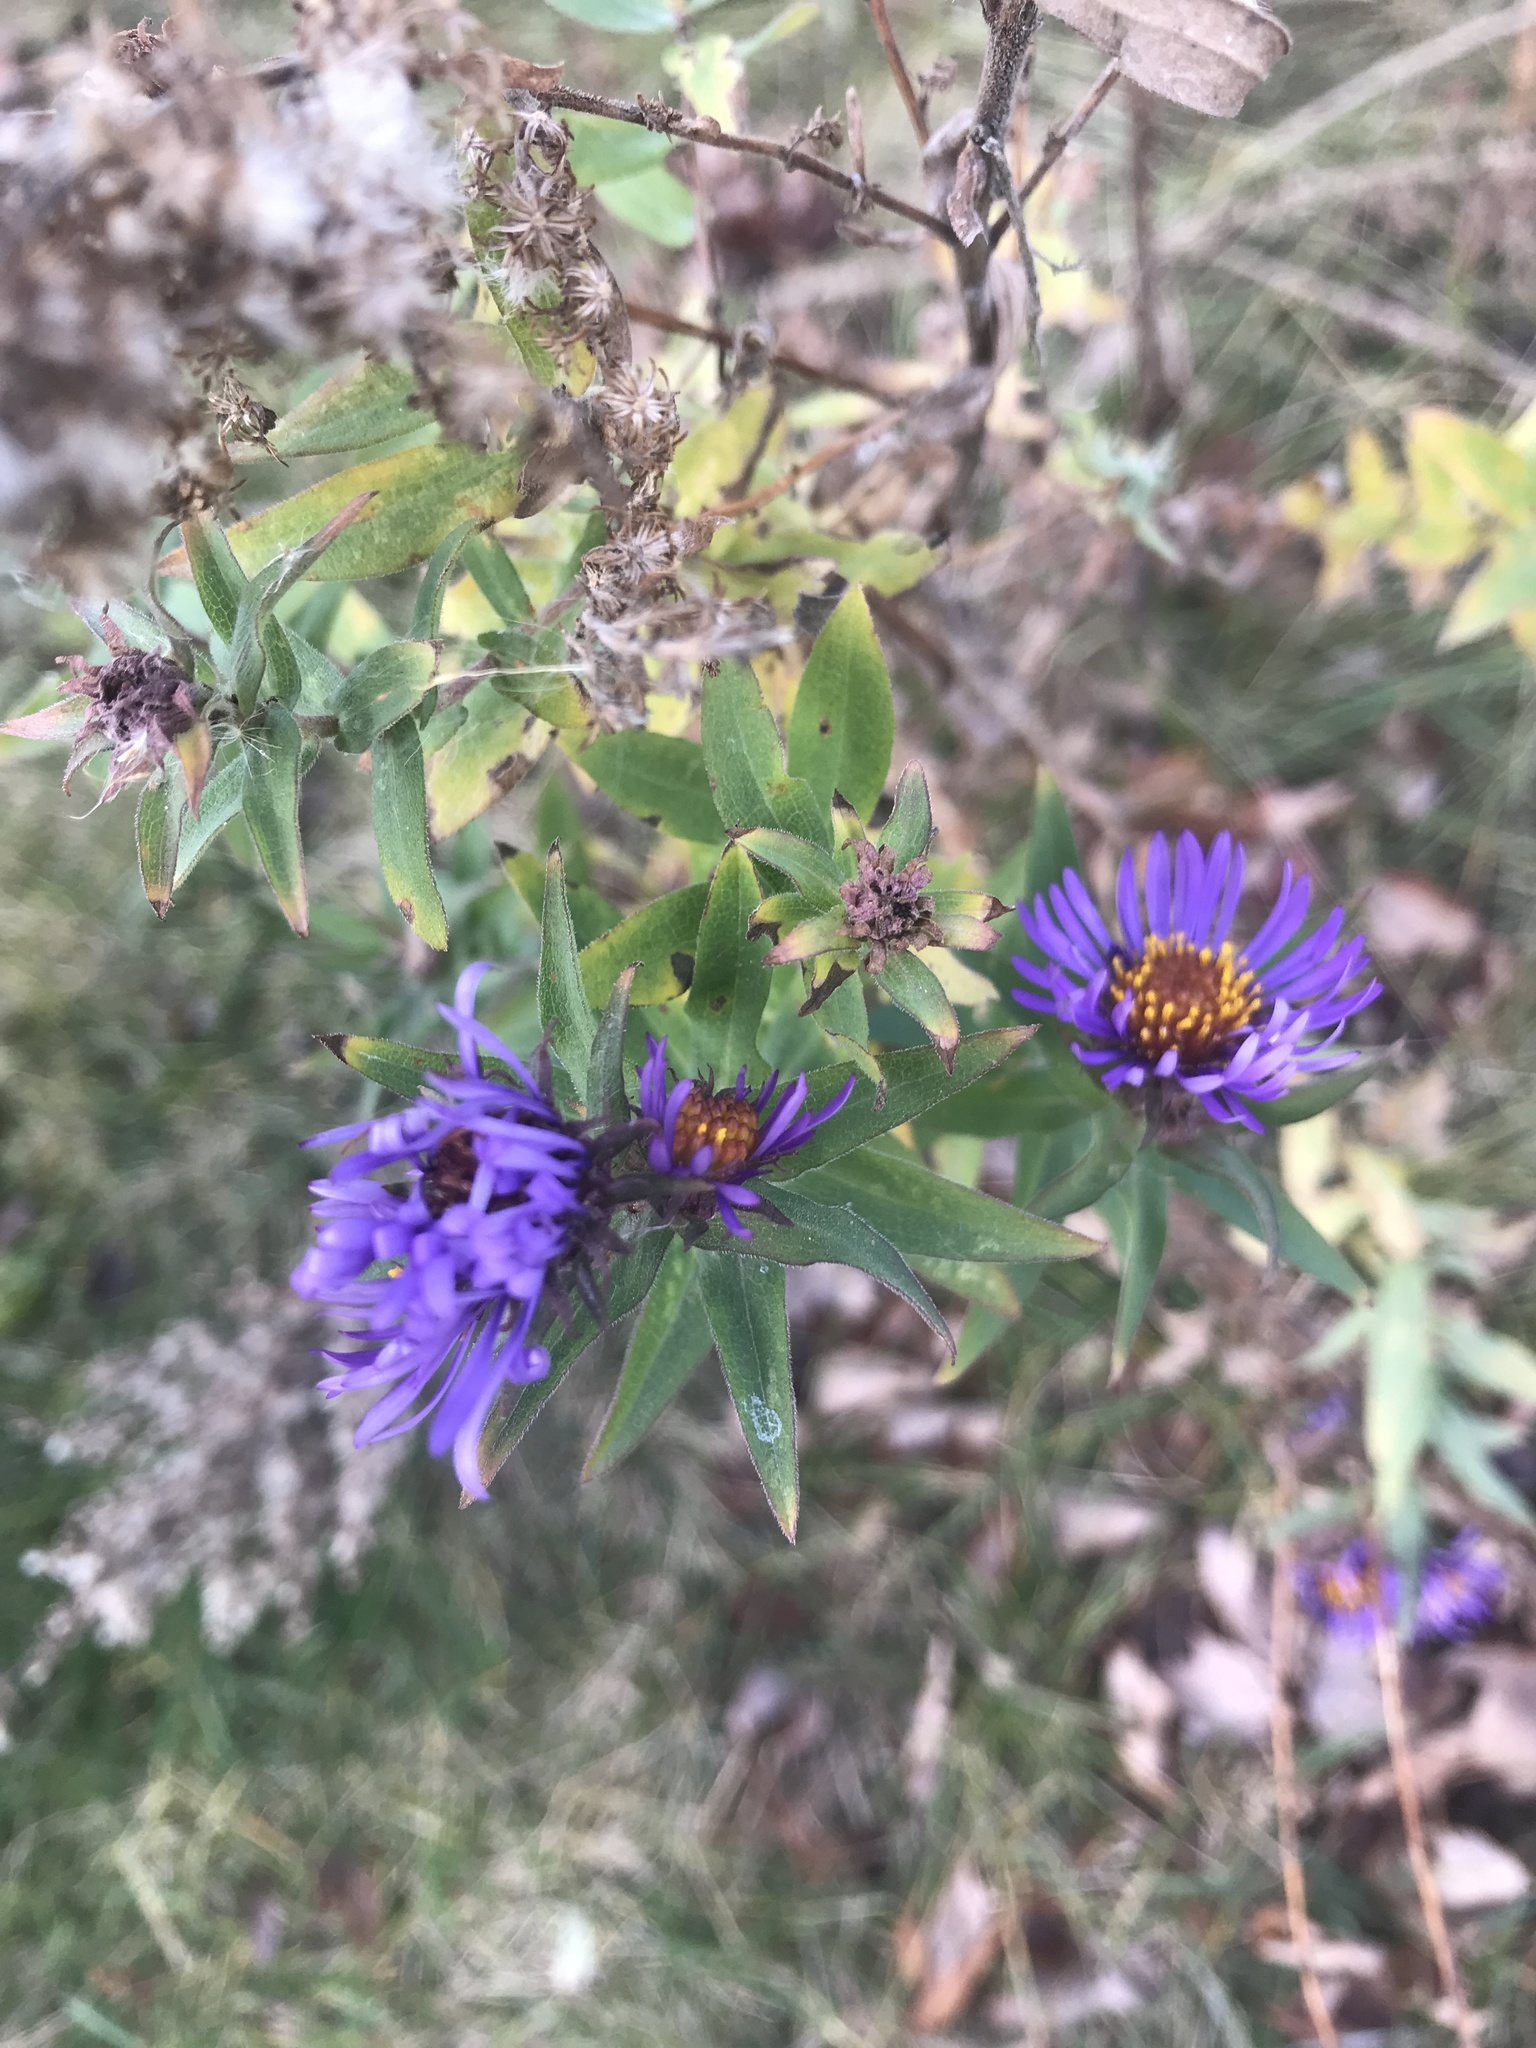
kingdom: Plantae
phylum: Tracheophyta
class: Magnoliopsida
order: Asterales
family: Asteraceae
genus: Symphyotrichum
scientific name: Symphyotrichum novae-angliae
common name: Michaelmas daisy
